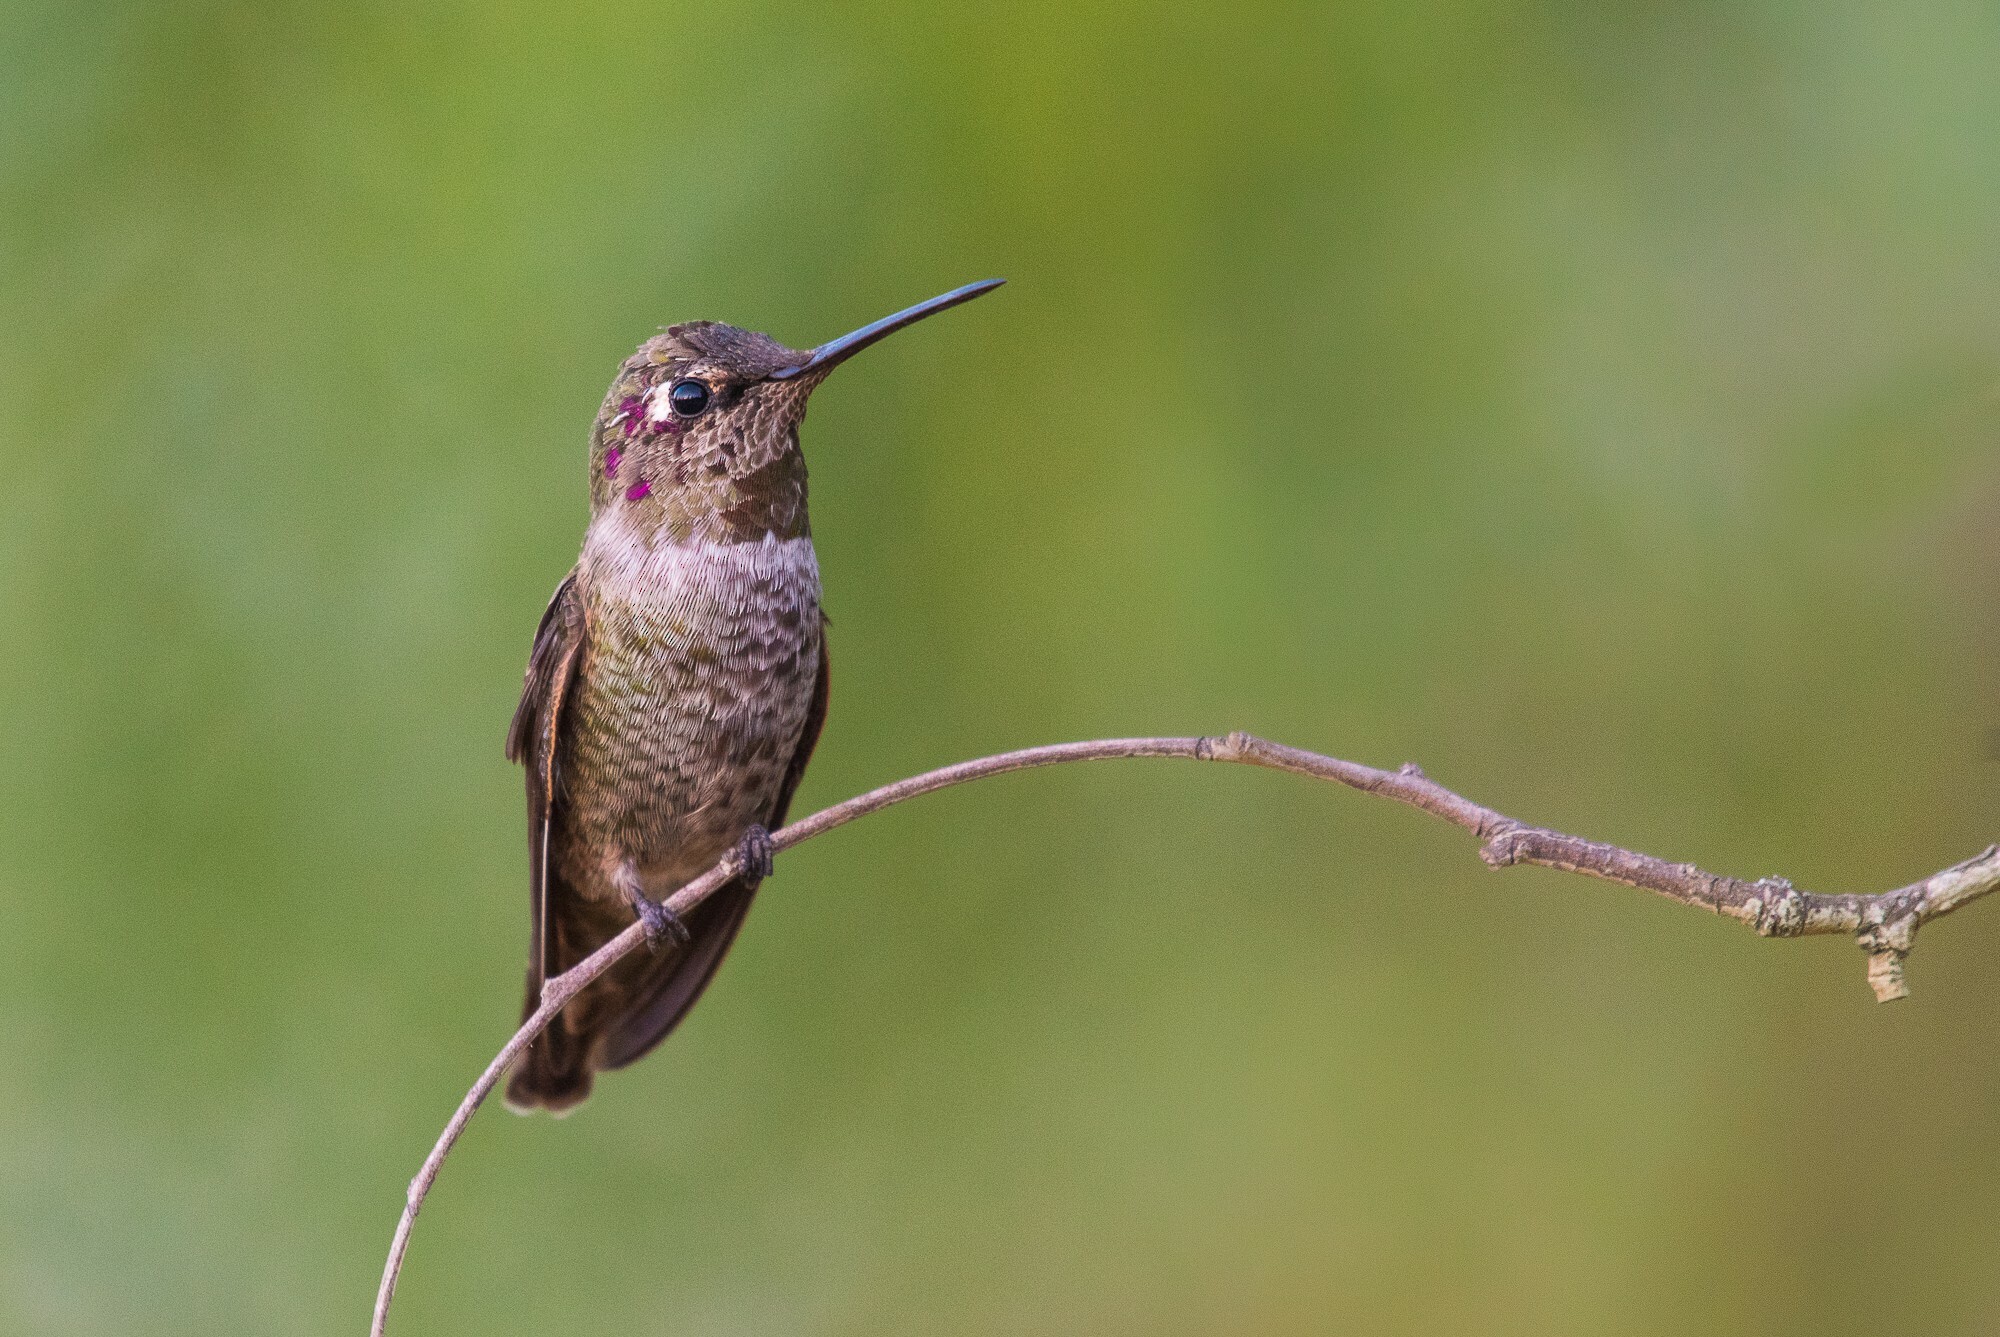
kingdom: Animalia
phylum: Chordata
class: Aves
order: Apodiformes
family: Trochilidae
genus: Calypte
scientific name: Calypte anna
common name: Anna's hummingbird
